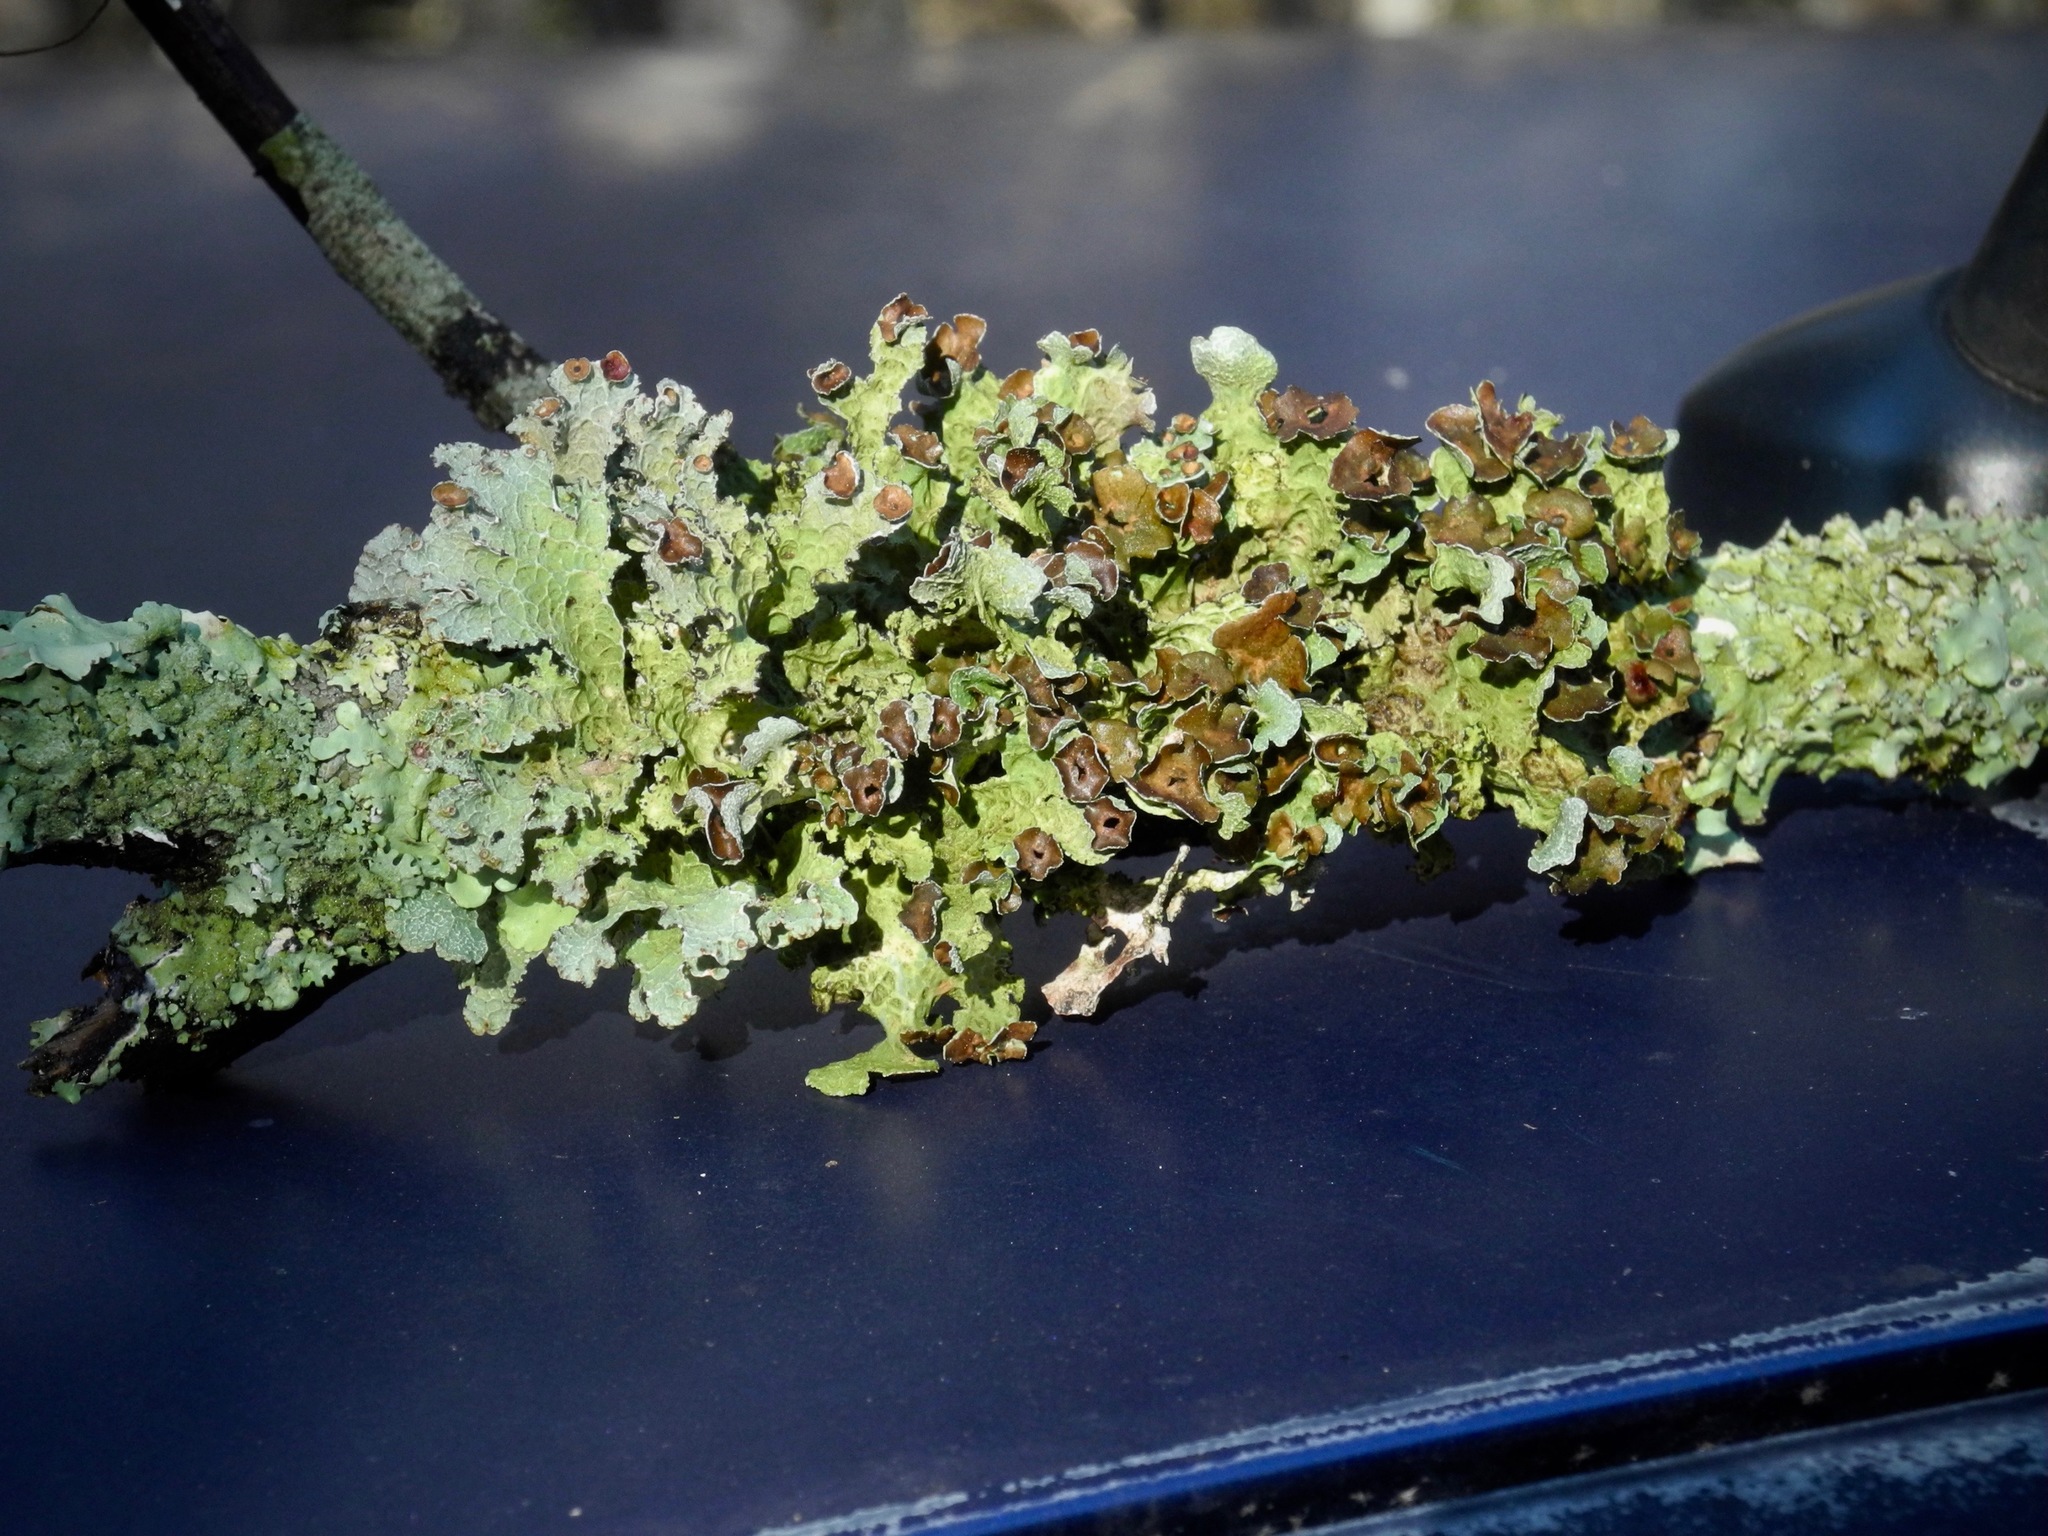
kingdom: Fungi
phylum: Ascomycota
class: Lecanoromycetes
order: Lecanorales
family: Parmeliaceae
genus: Platismatia
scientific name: Platismatia tuckermanii
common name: Crumpled rag lichen
